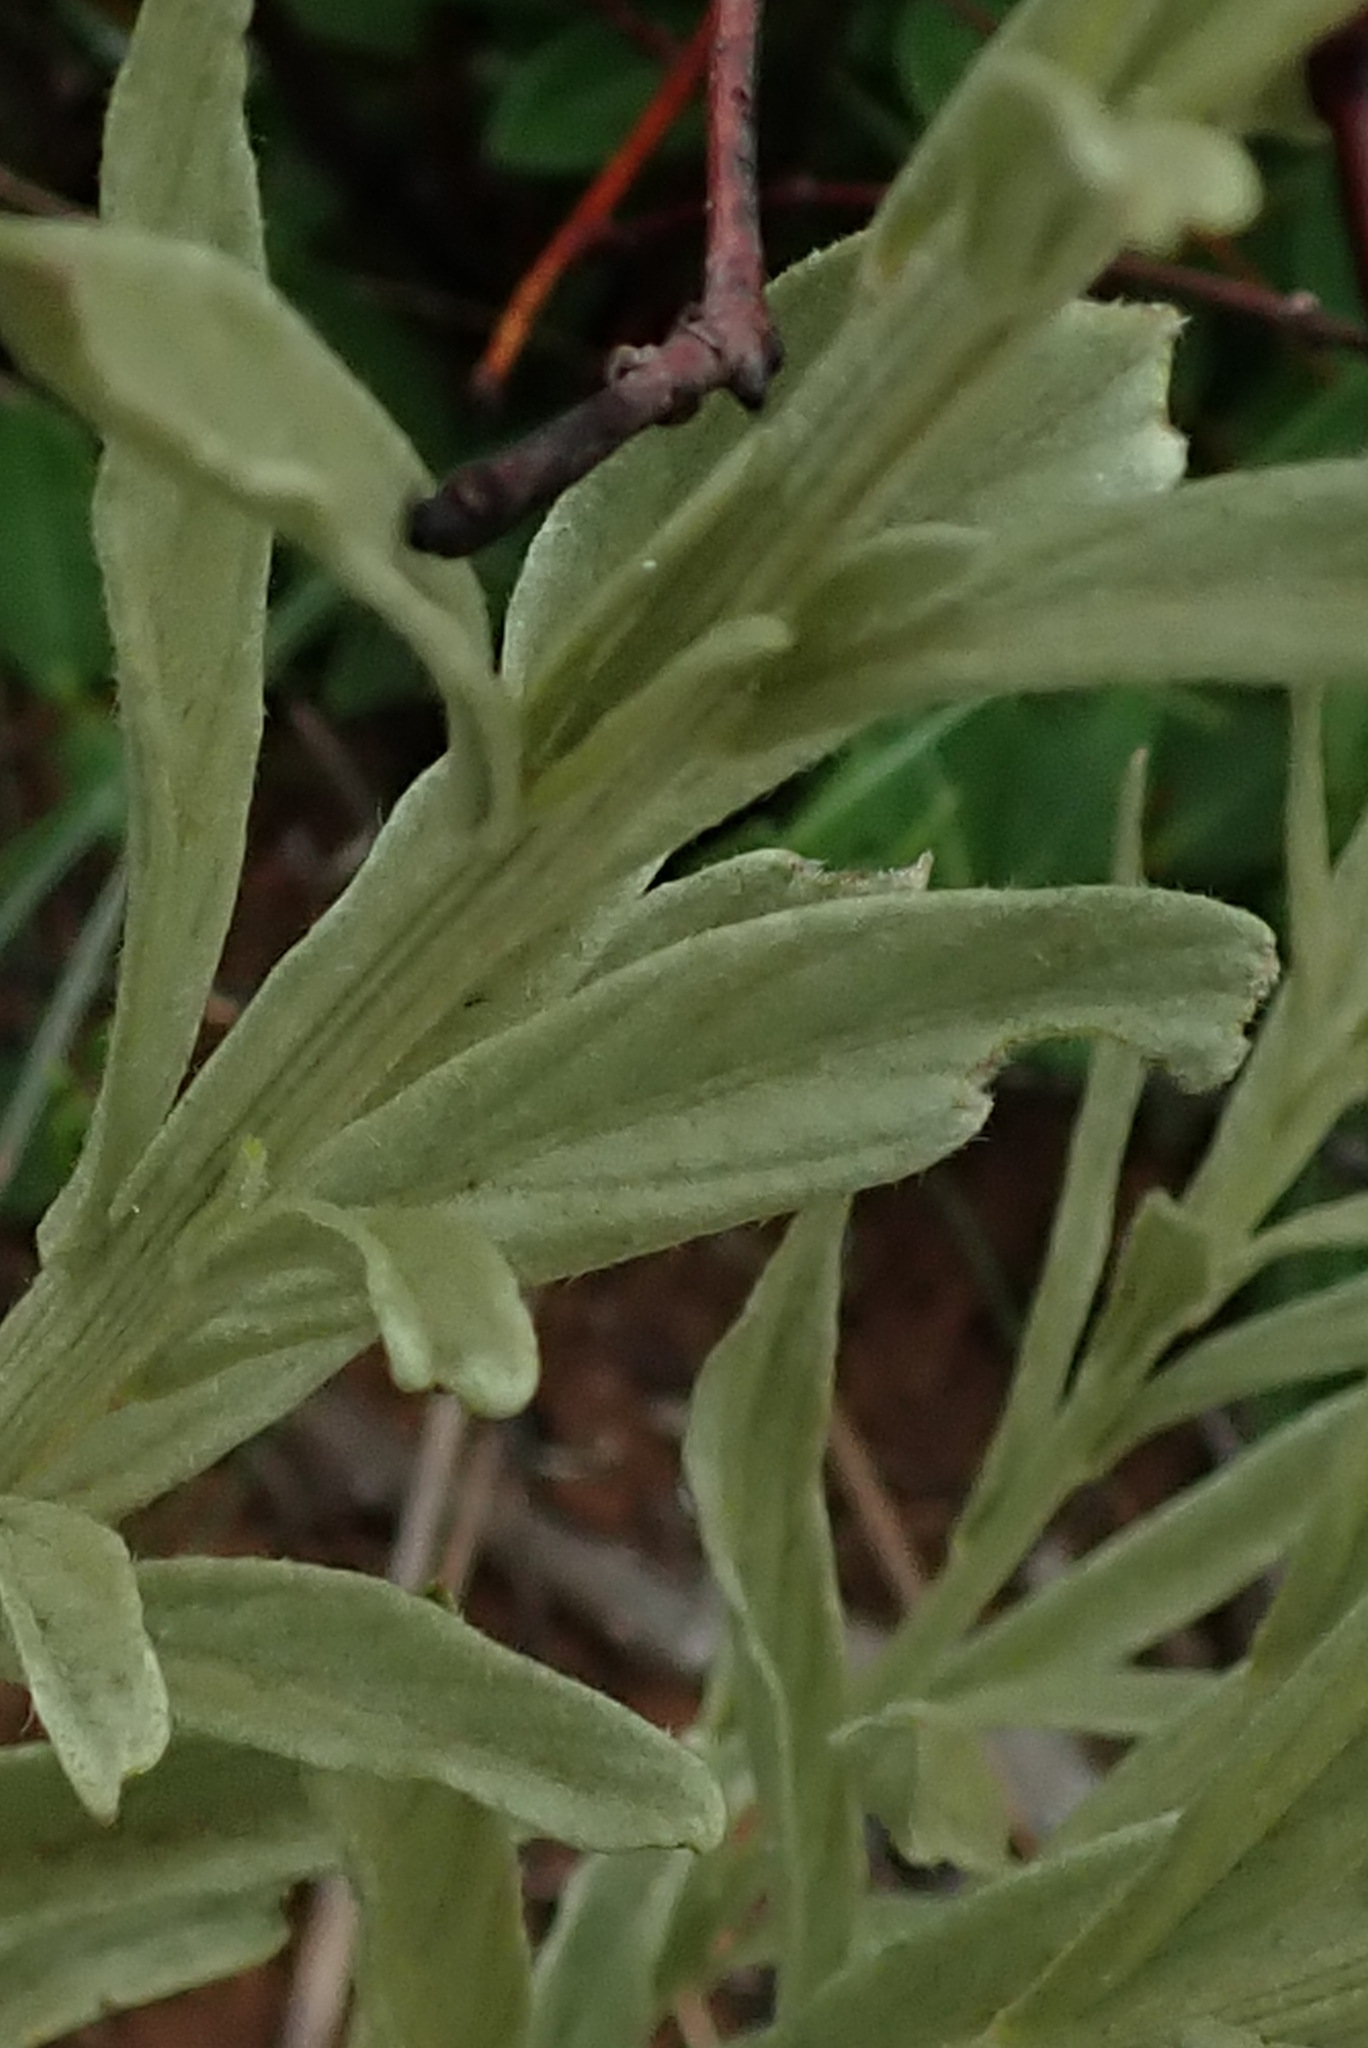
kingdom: Plantae
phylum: Tracheophyta
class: Magnoliopsida
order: Asterales
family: Asteraceae
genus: Hilliardiella
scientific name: Hilliardiella aristata
